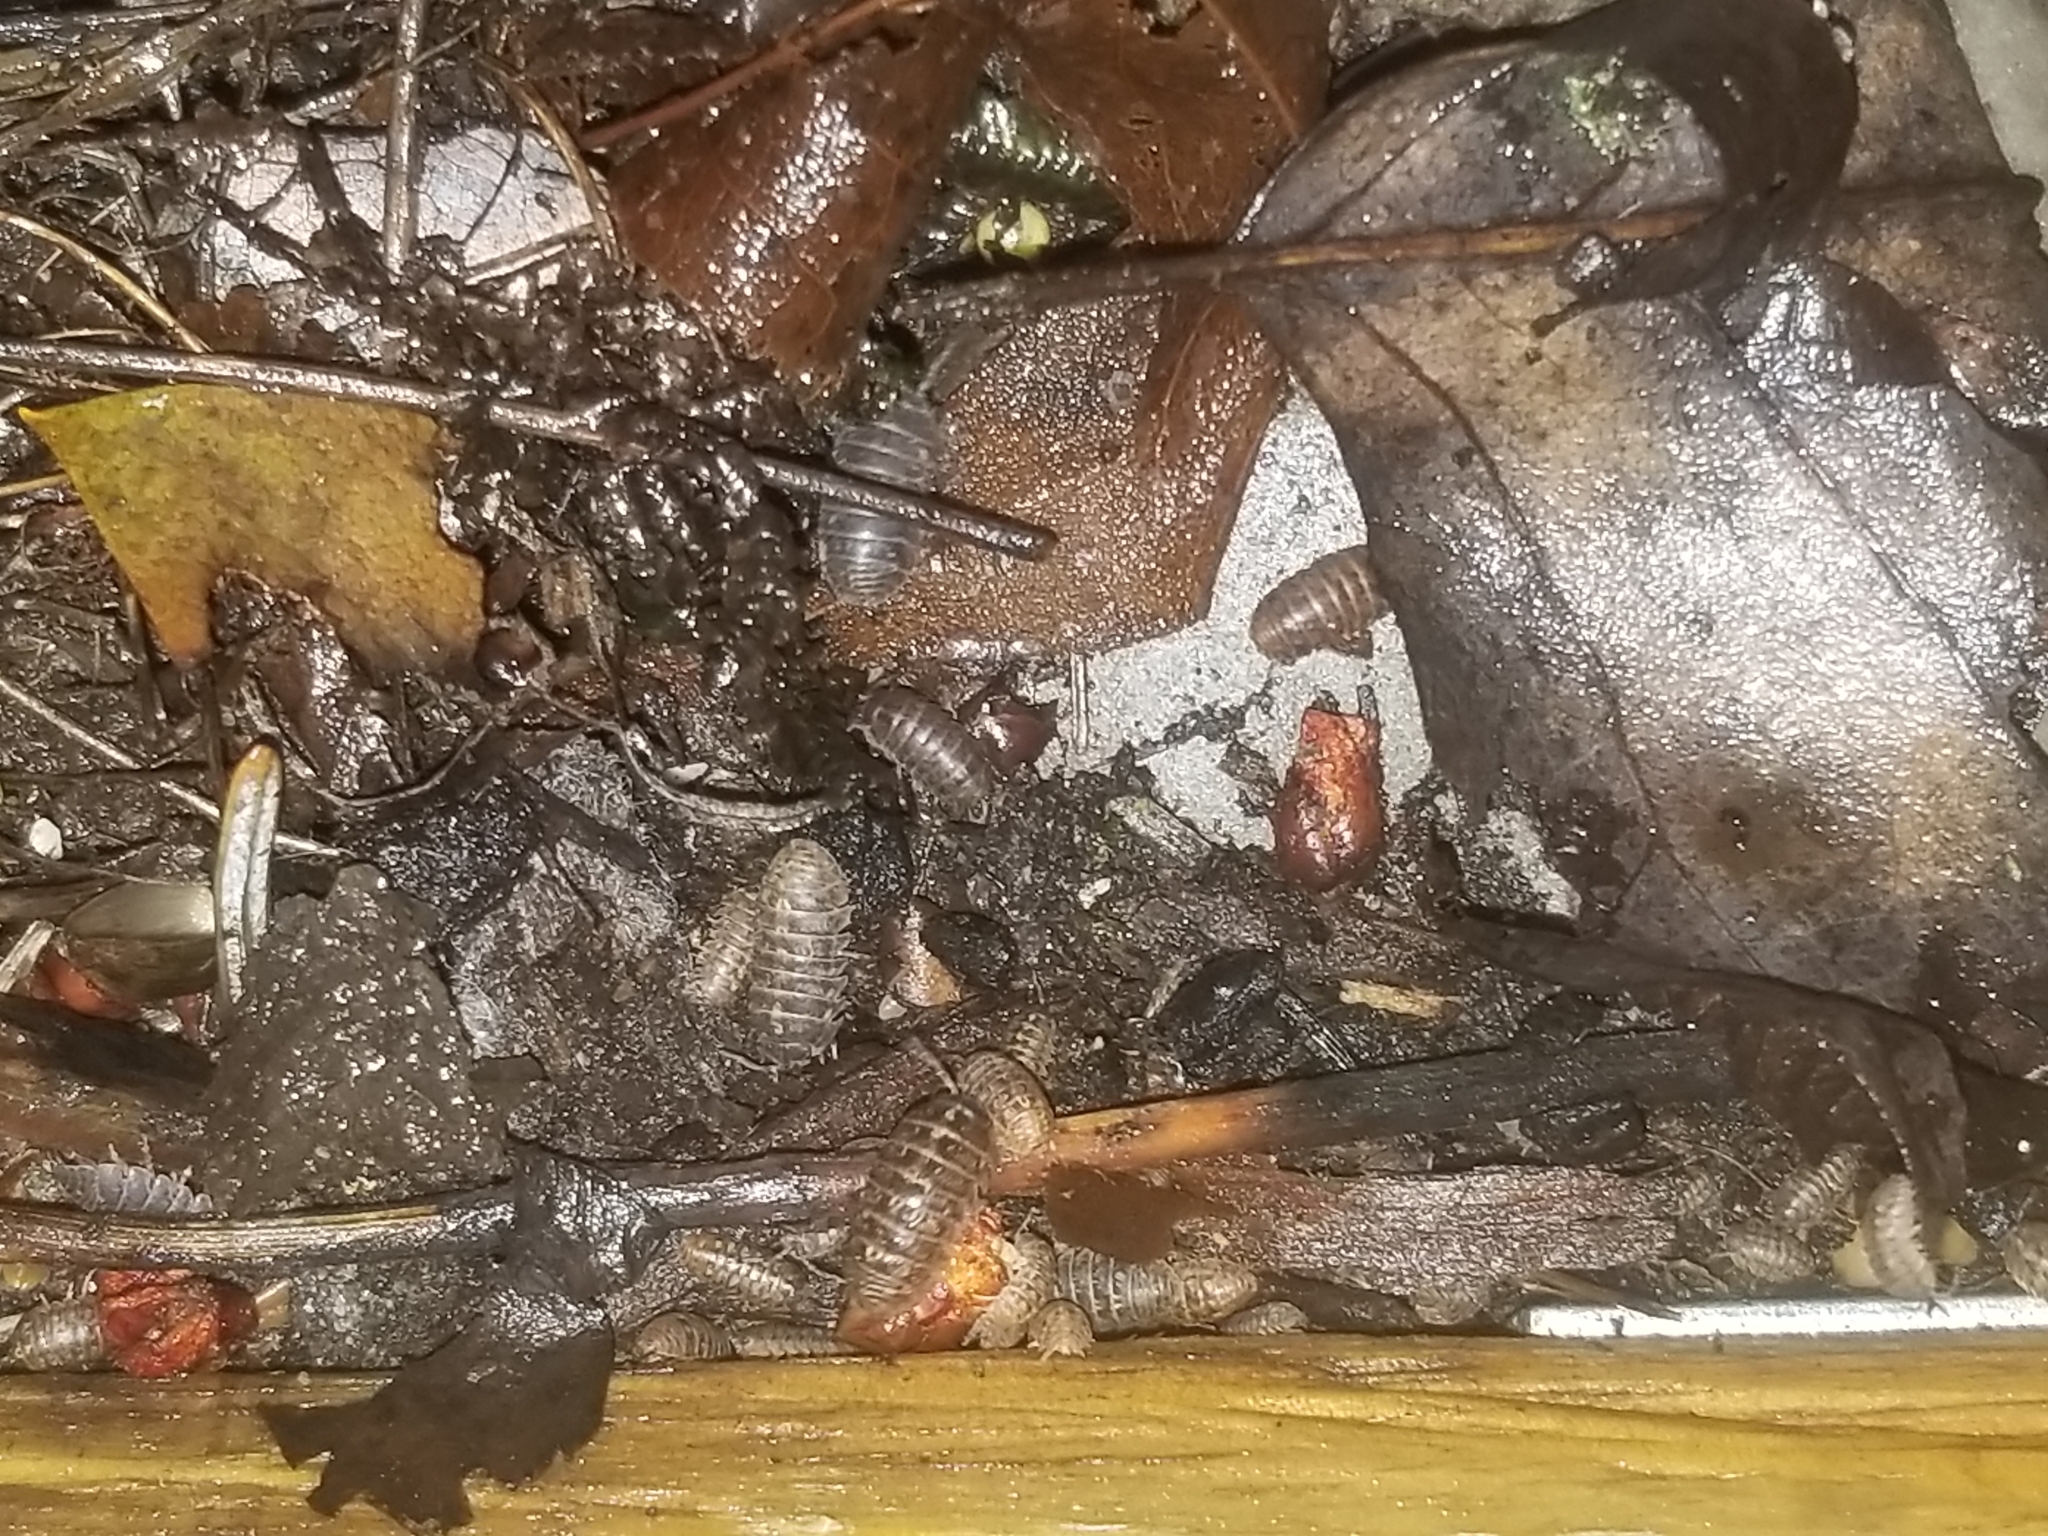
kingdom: Animalia
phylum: Arthropoda
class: Malacostraca
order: Isopoda
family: Armadillidiidae
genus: Armadillidium
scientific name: Armadillidium vulgare
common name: Common pill woodlouse
